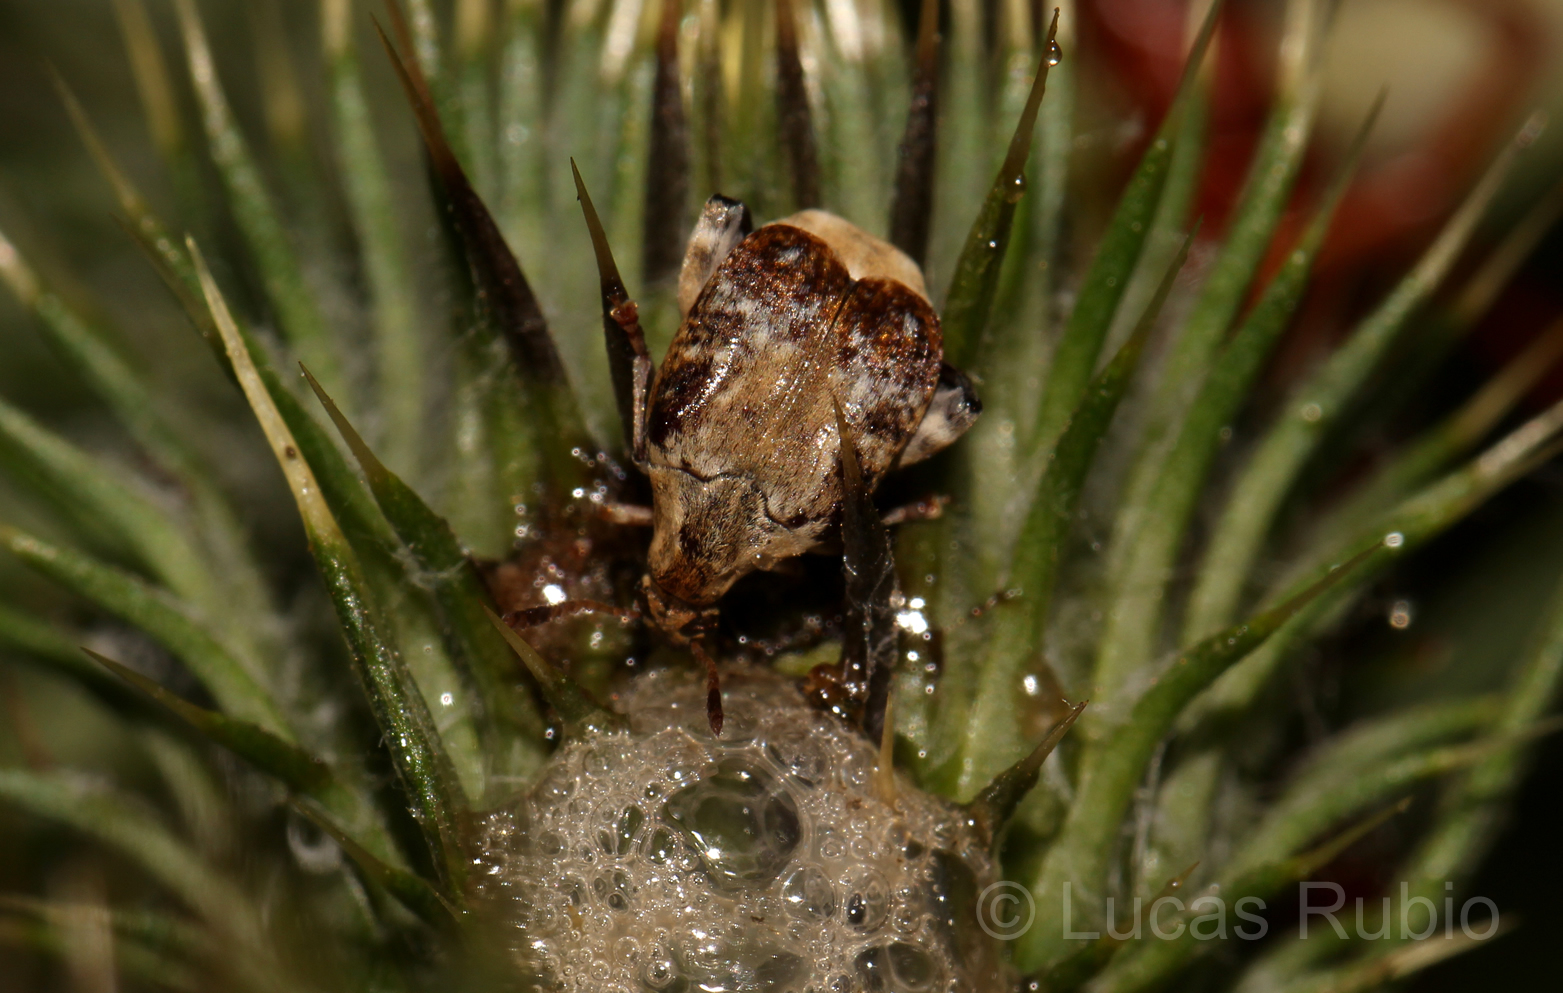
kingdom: Animalia
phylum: Arthropoda
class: Insecta
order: Coleoptera
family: Chrysomelidae
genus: Merobruchus
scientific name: Merobruchus bicoloripes
